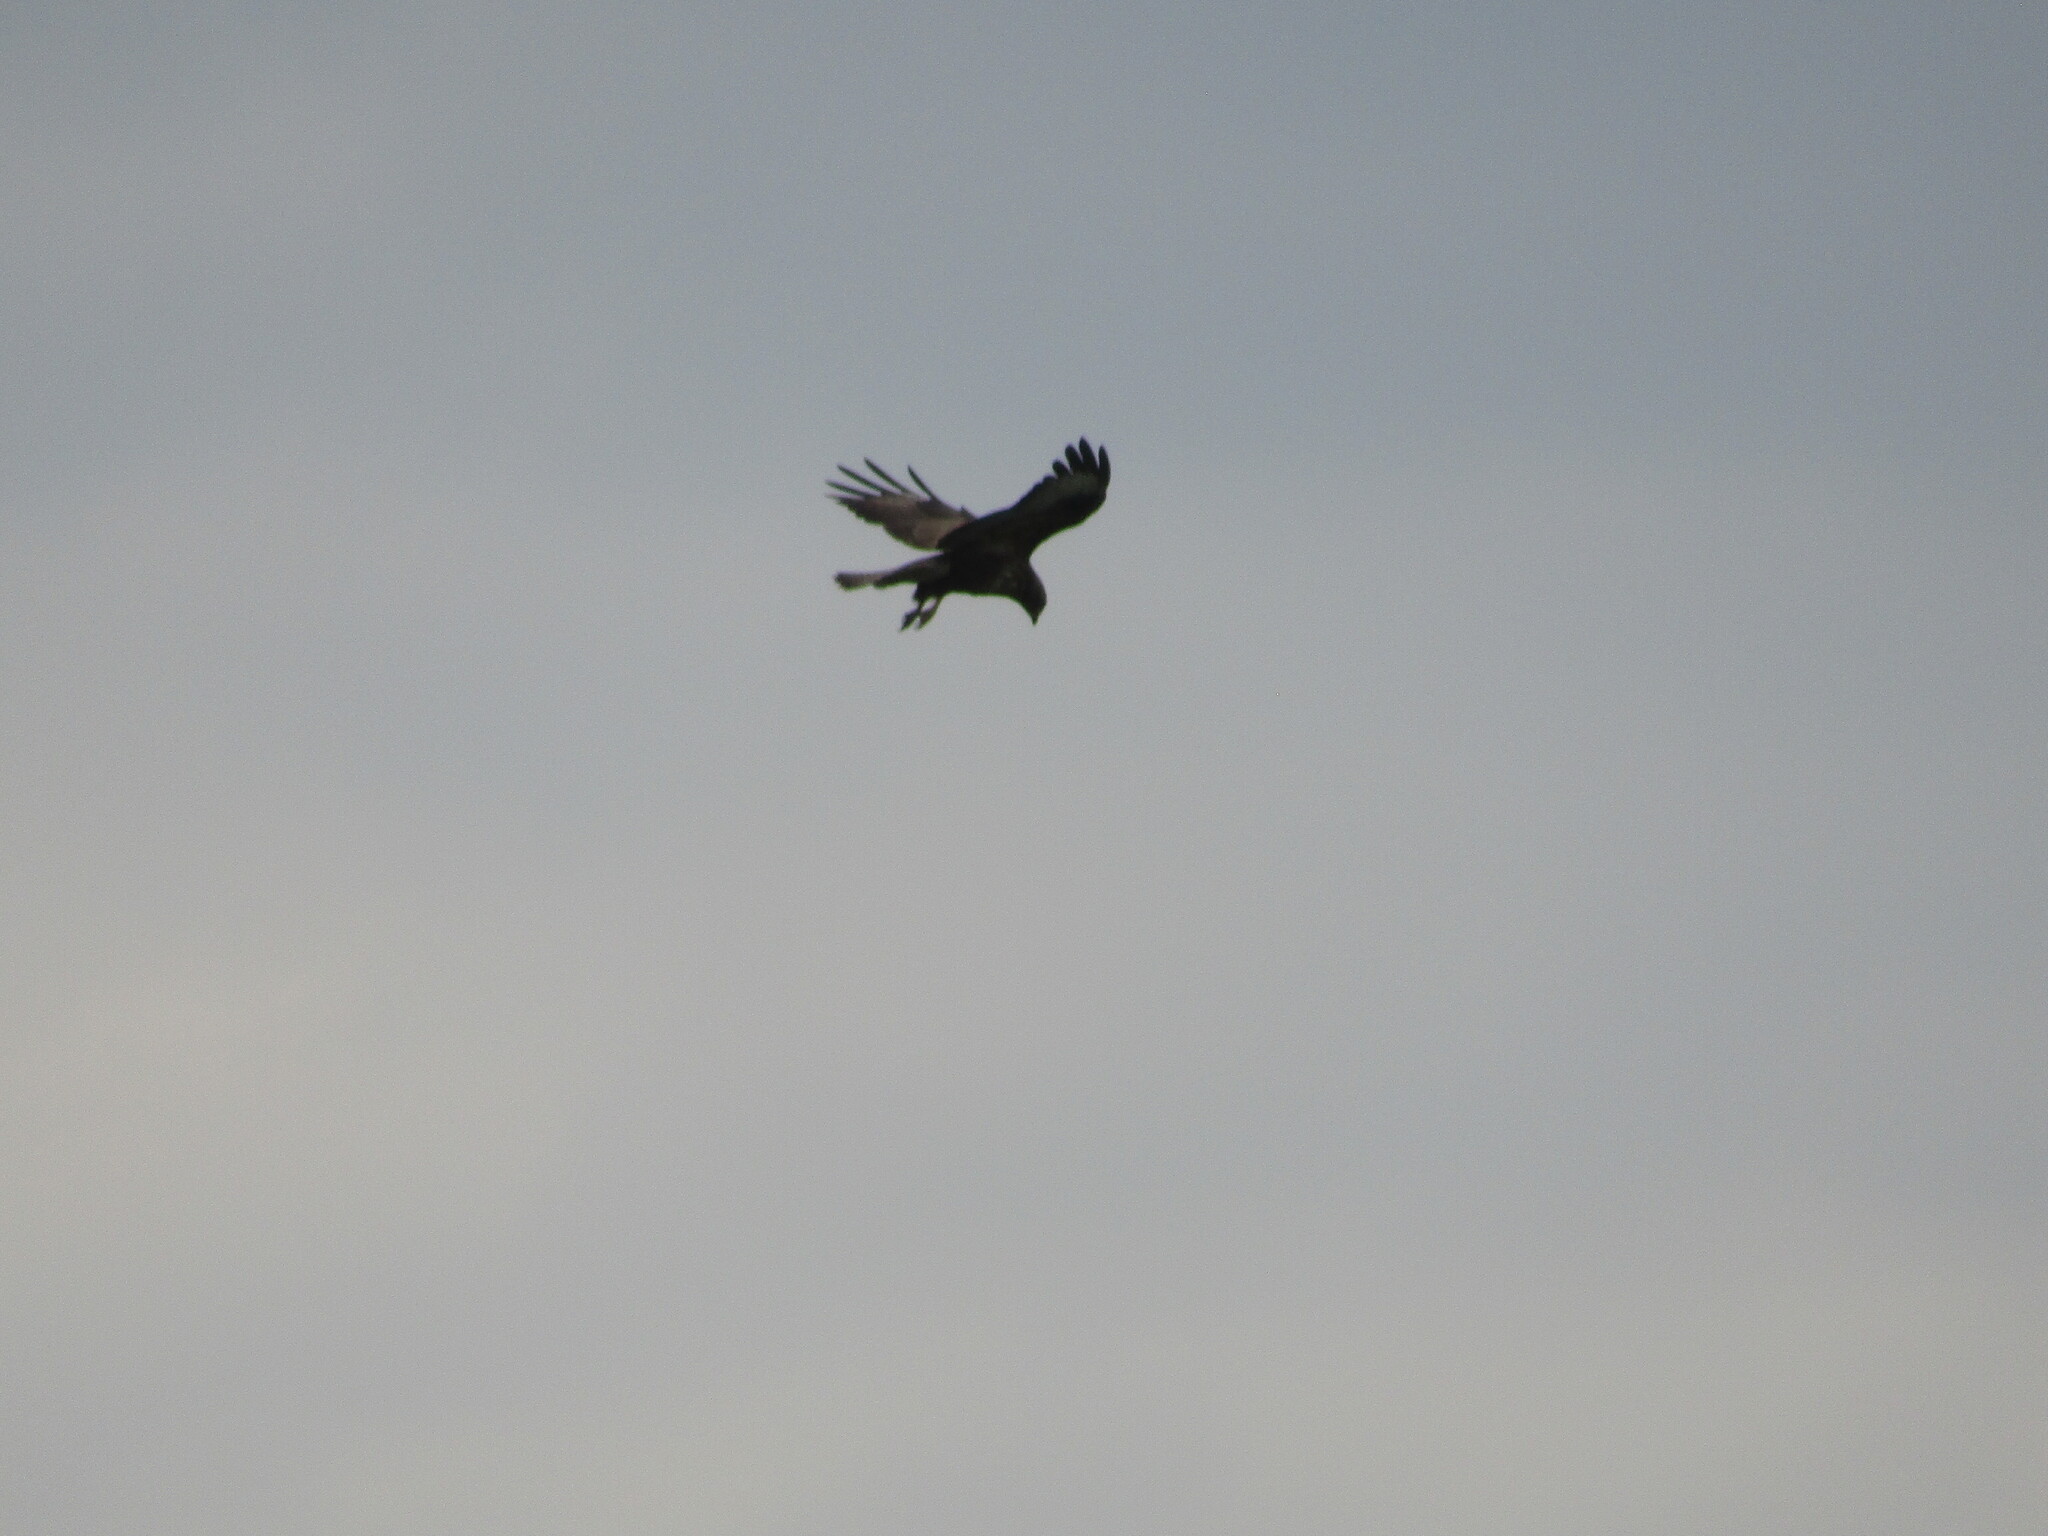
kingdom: Animalia
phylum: Chordata
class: Aves
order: Accipitriformes
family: Accipitridae
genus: Buteo
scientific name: Buteo buteo
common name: Common buzzard
